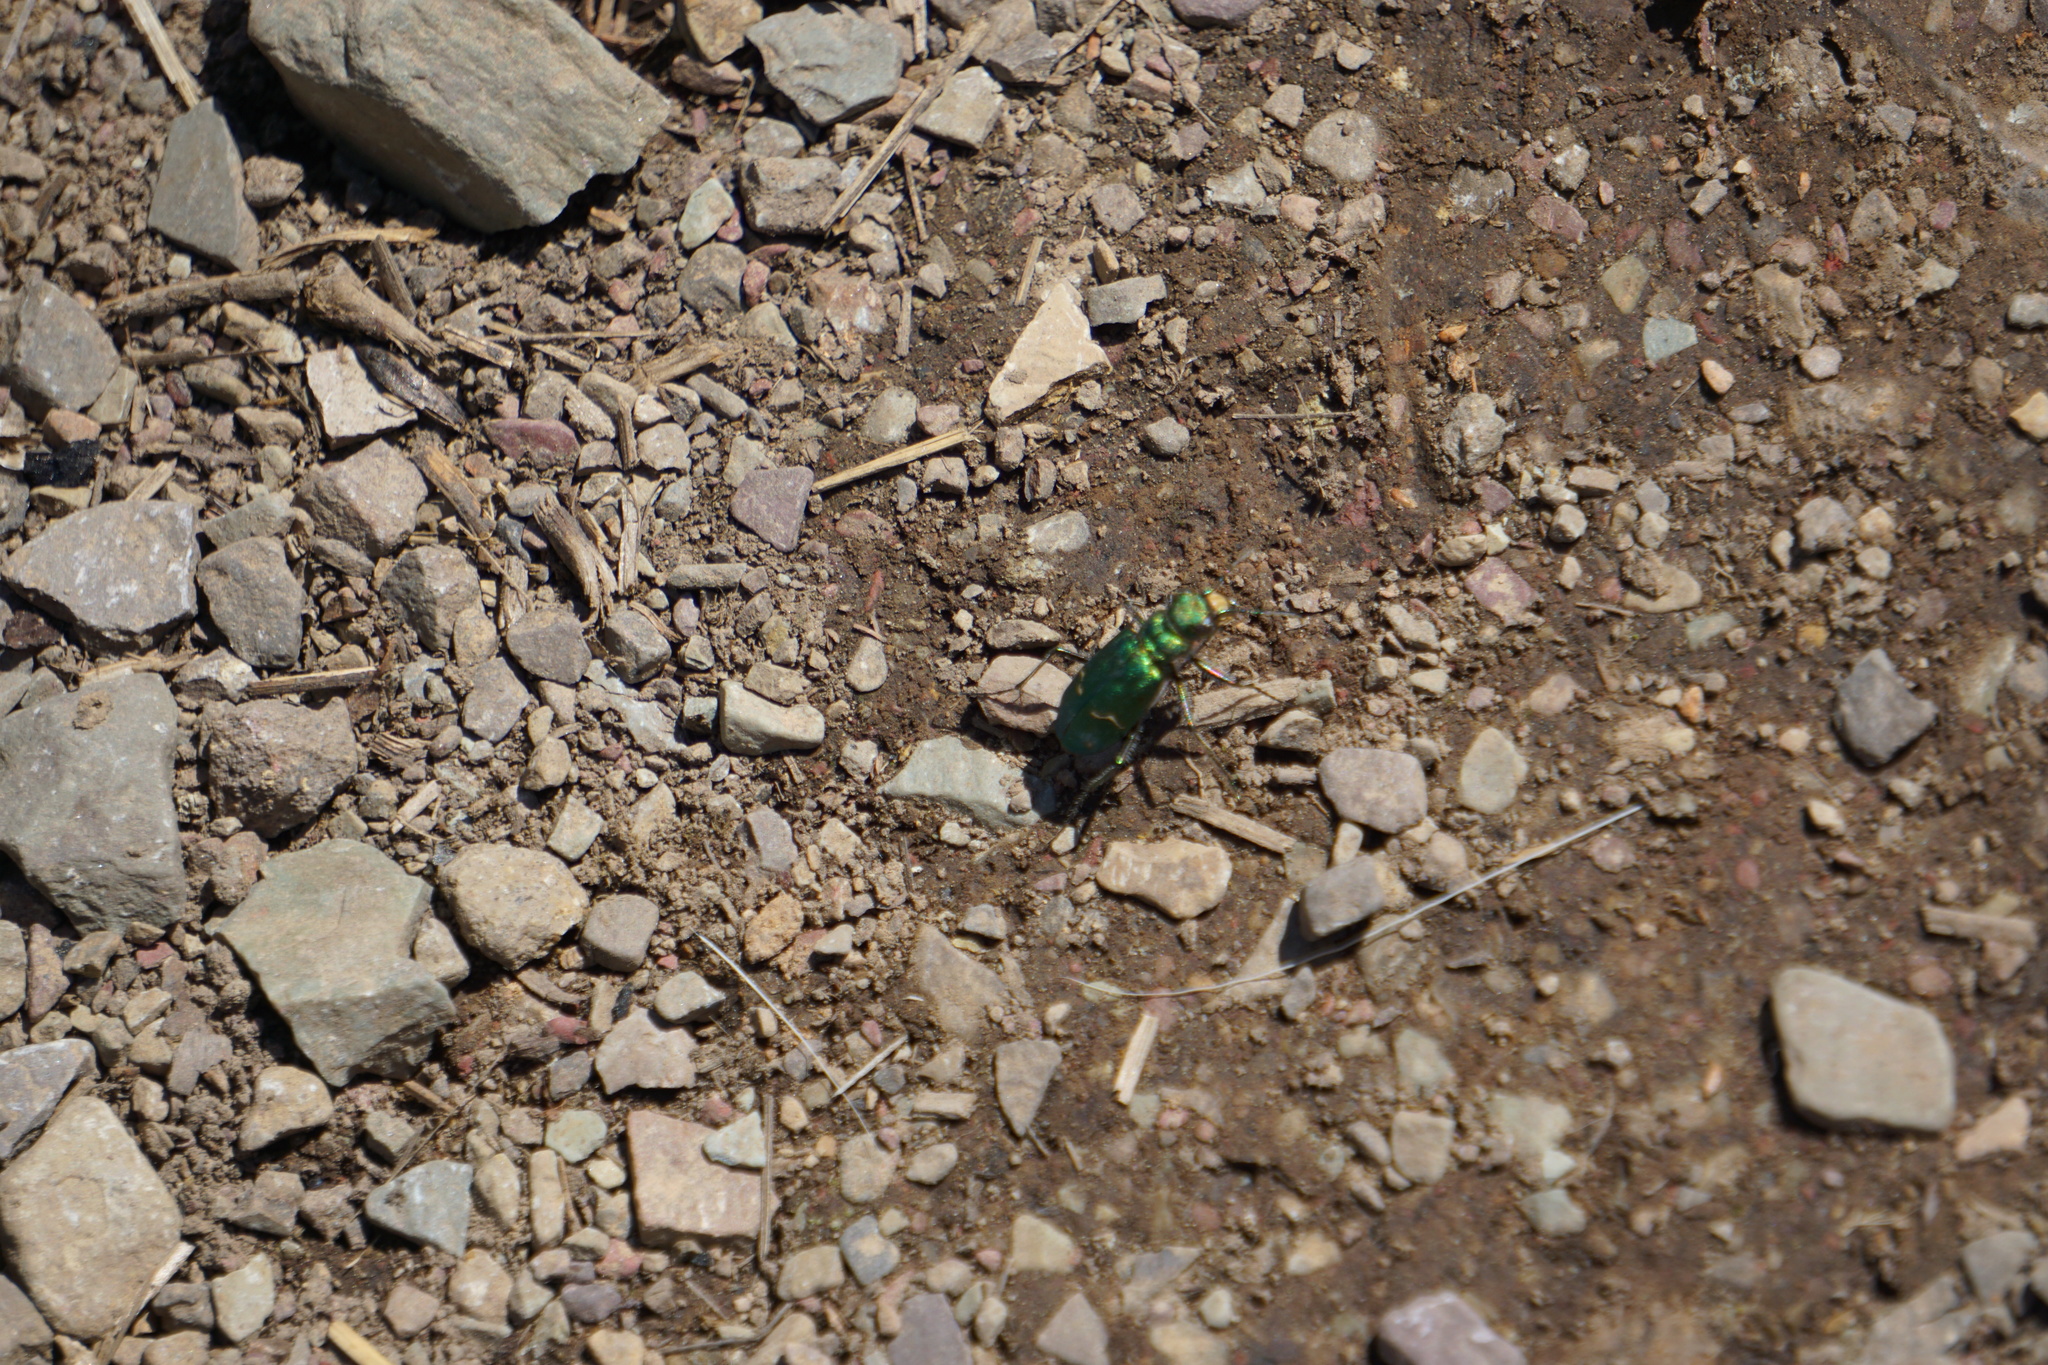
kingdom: Animalia
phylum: Arthropoda
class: Insecta
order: Coleoptera
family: Carabidae
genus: Cicindela
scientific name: Cicindela longilabris
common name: Boreal long-lipped tiger beetle
